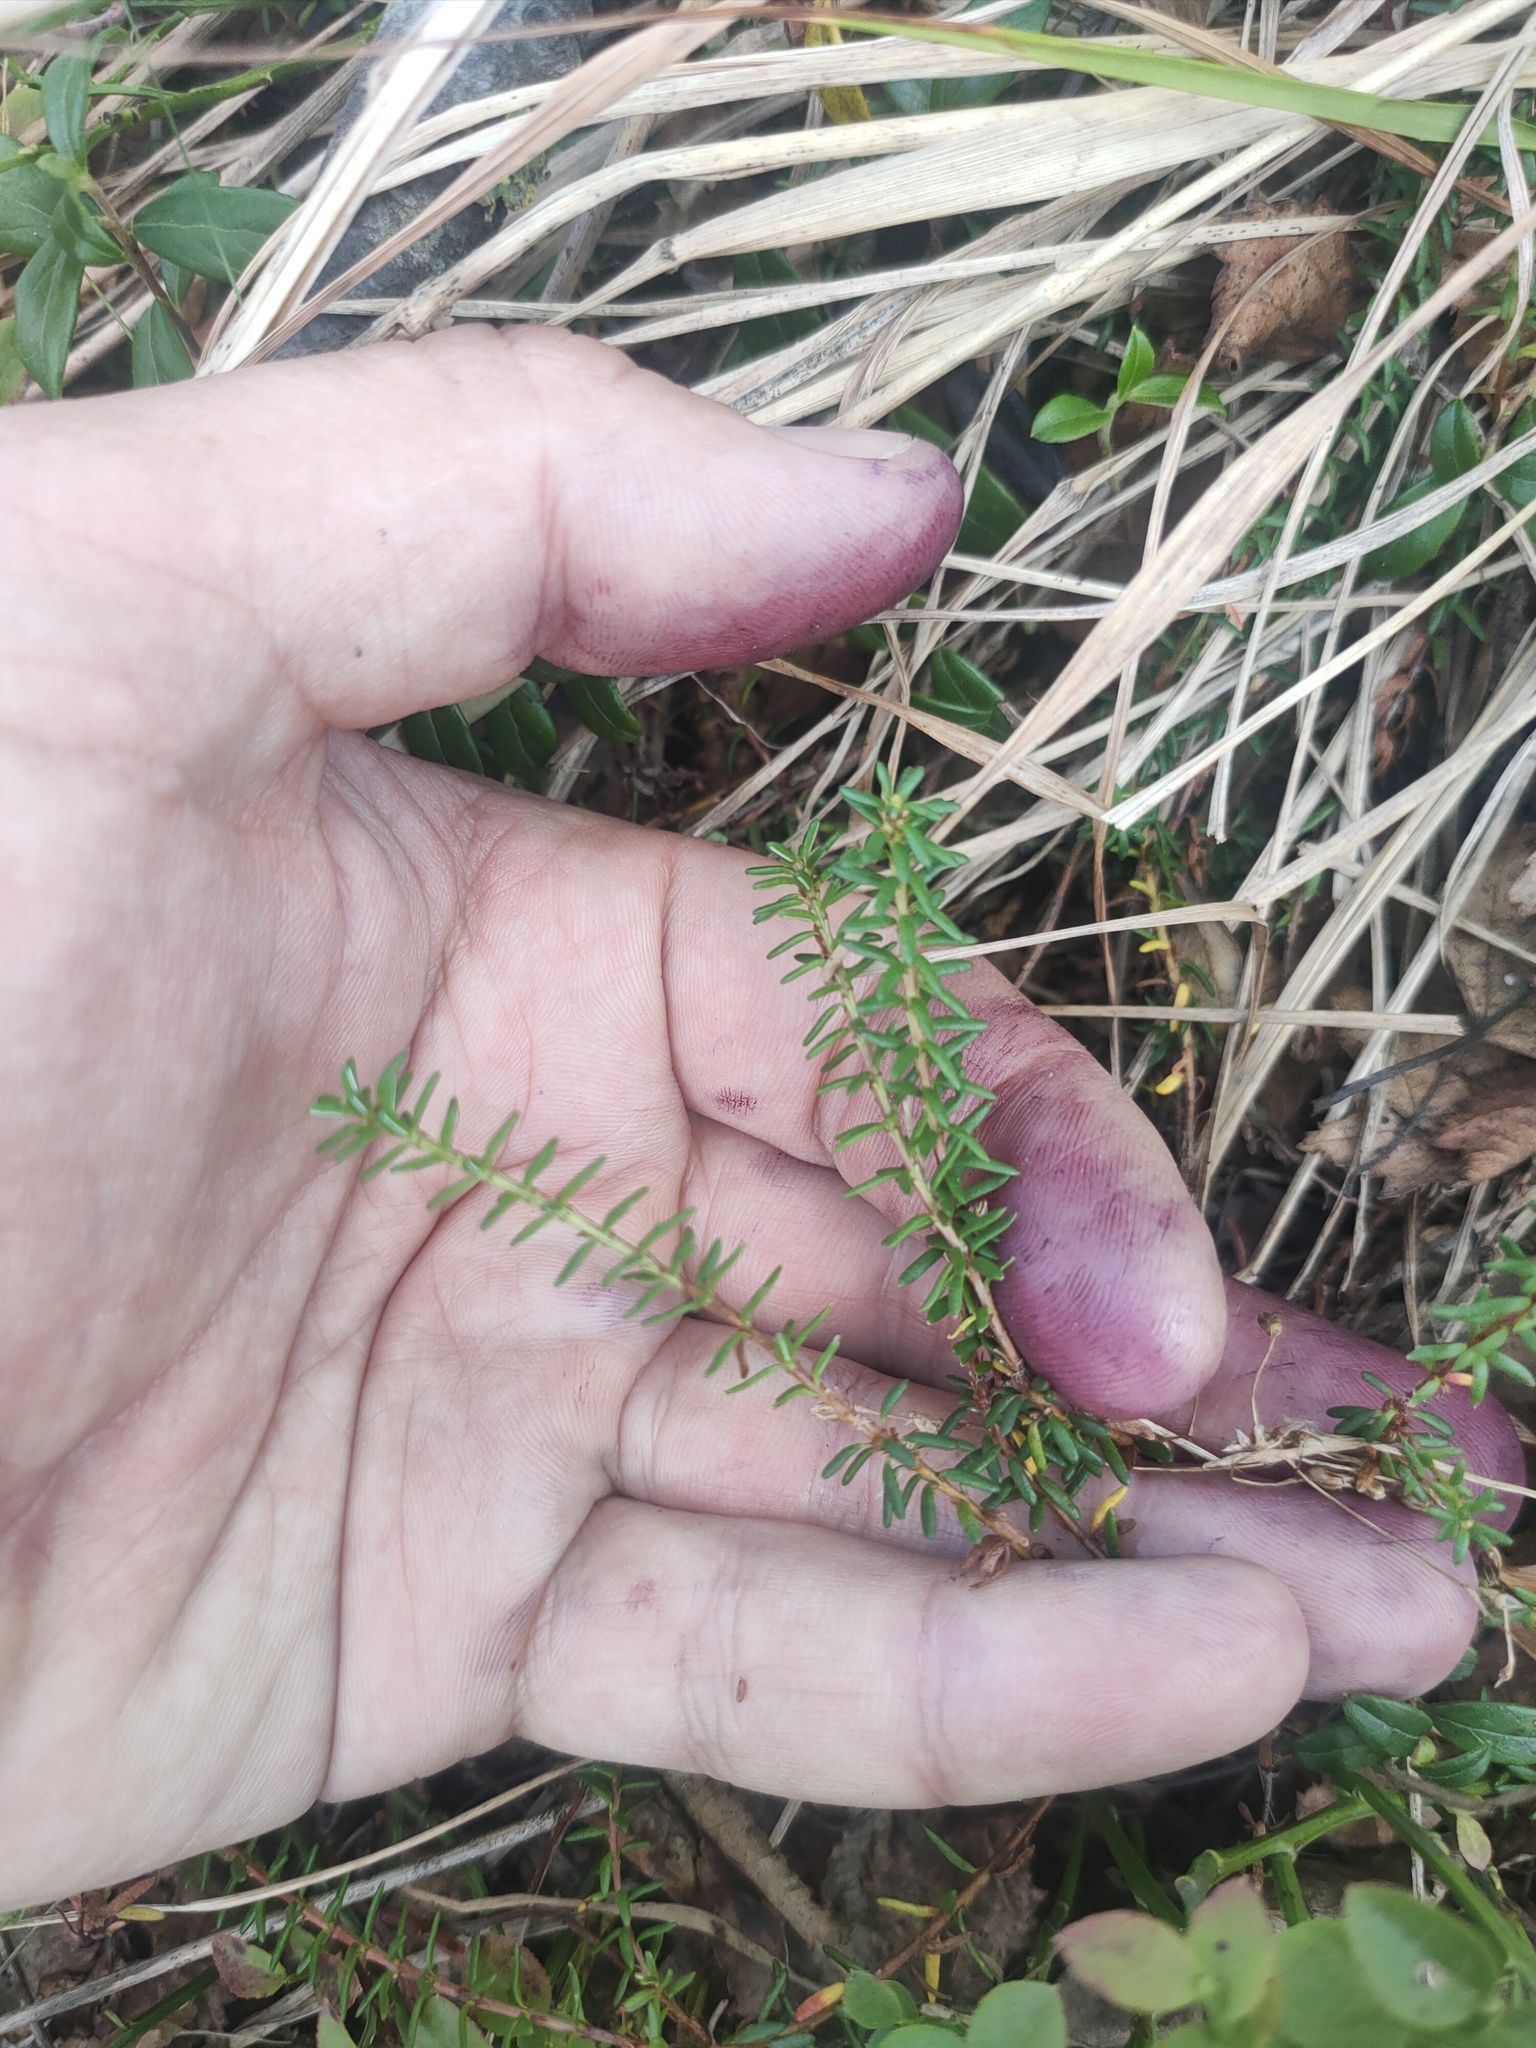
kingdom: Plantae
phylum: Tracheophyta
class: Magnoliopsida
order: Ericales
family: Ericaceae
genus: Empetrum
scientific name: Empetrum nigrum
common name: Black crowberry
